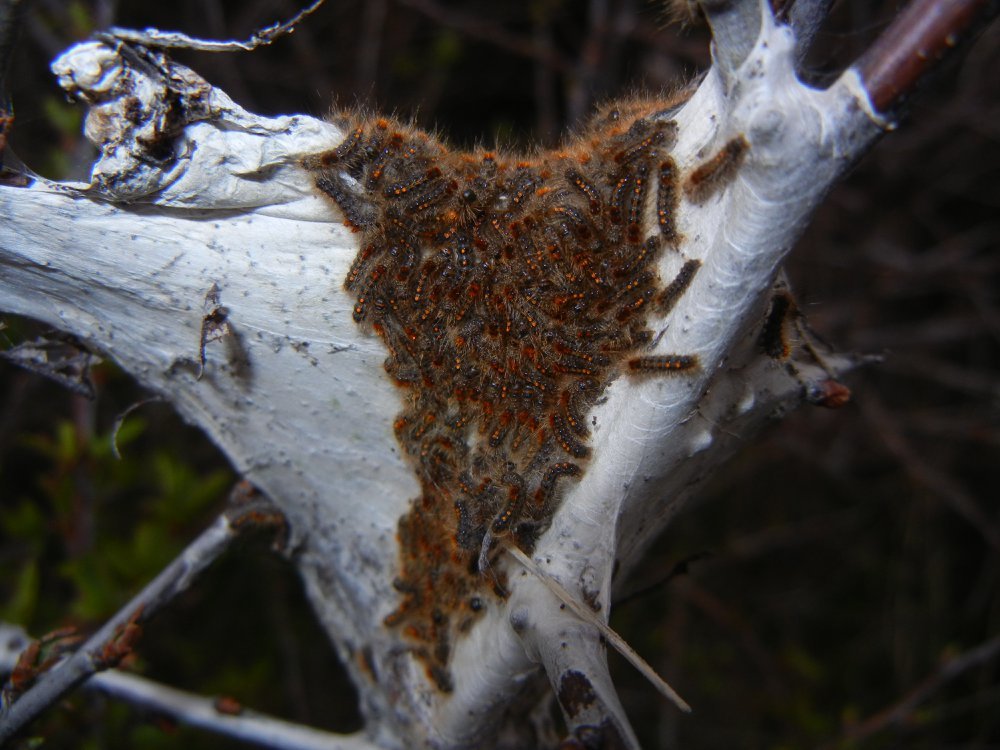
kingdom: Animalia
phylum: Arthropoda
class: Insecta
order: Lepidoptera
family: Erebidae
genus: Euproctis
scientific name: Euproctis chrysorrhoea
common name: Brown-tail
